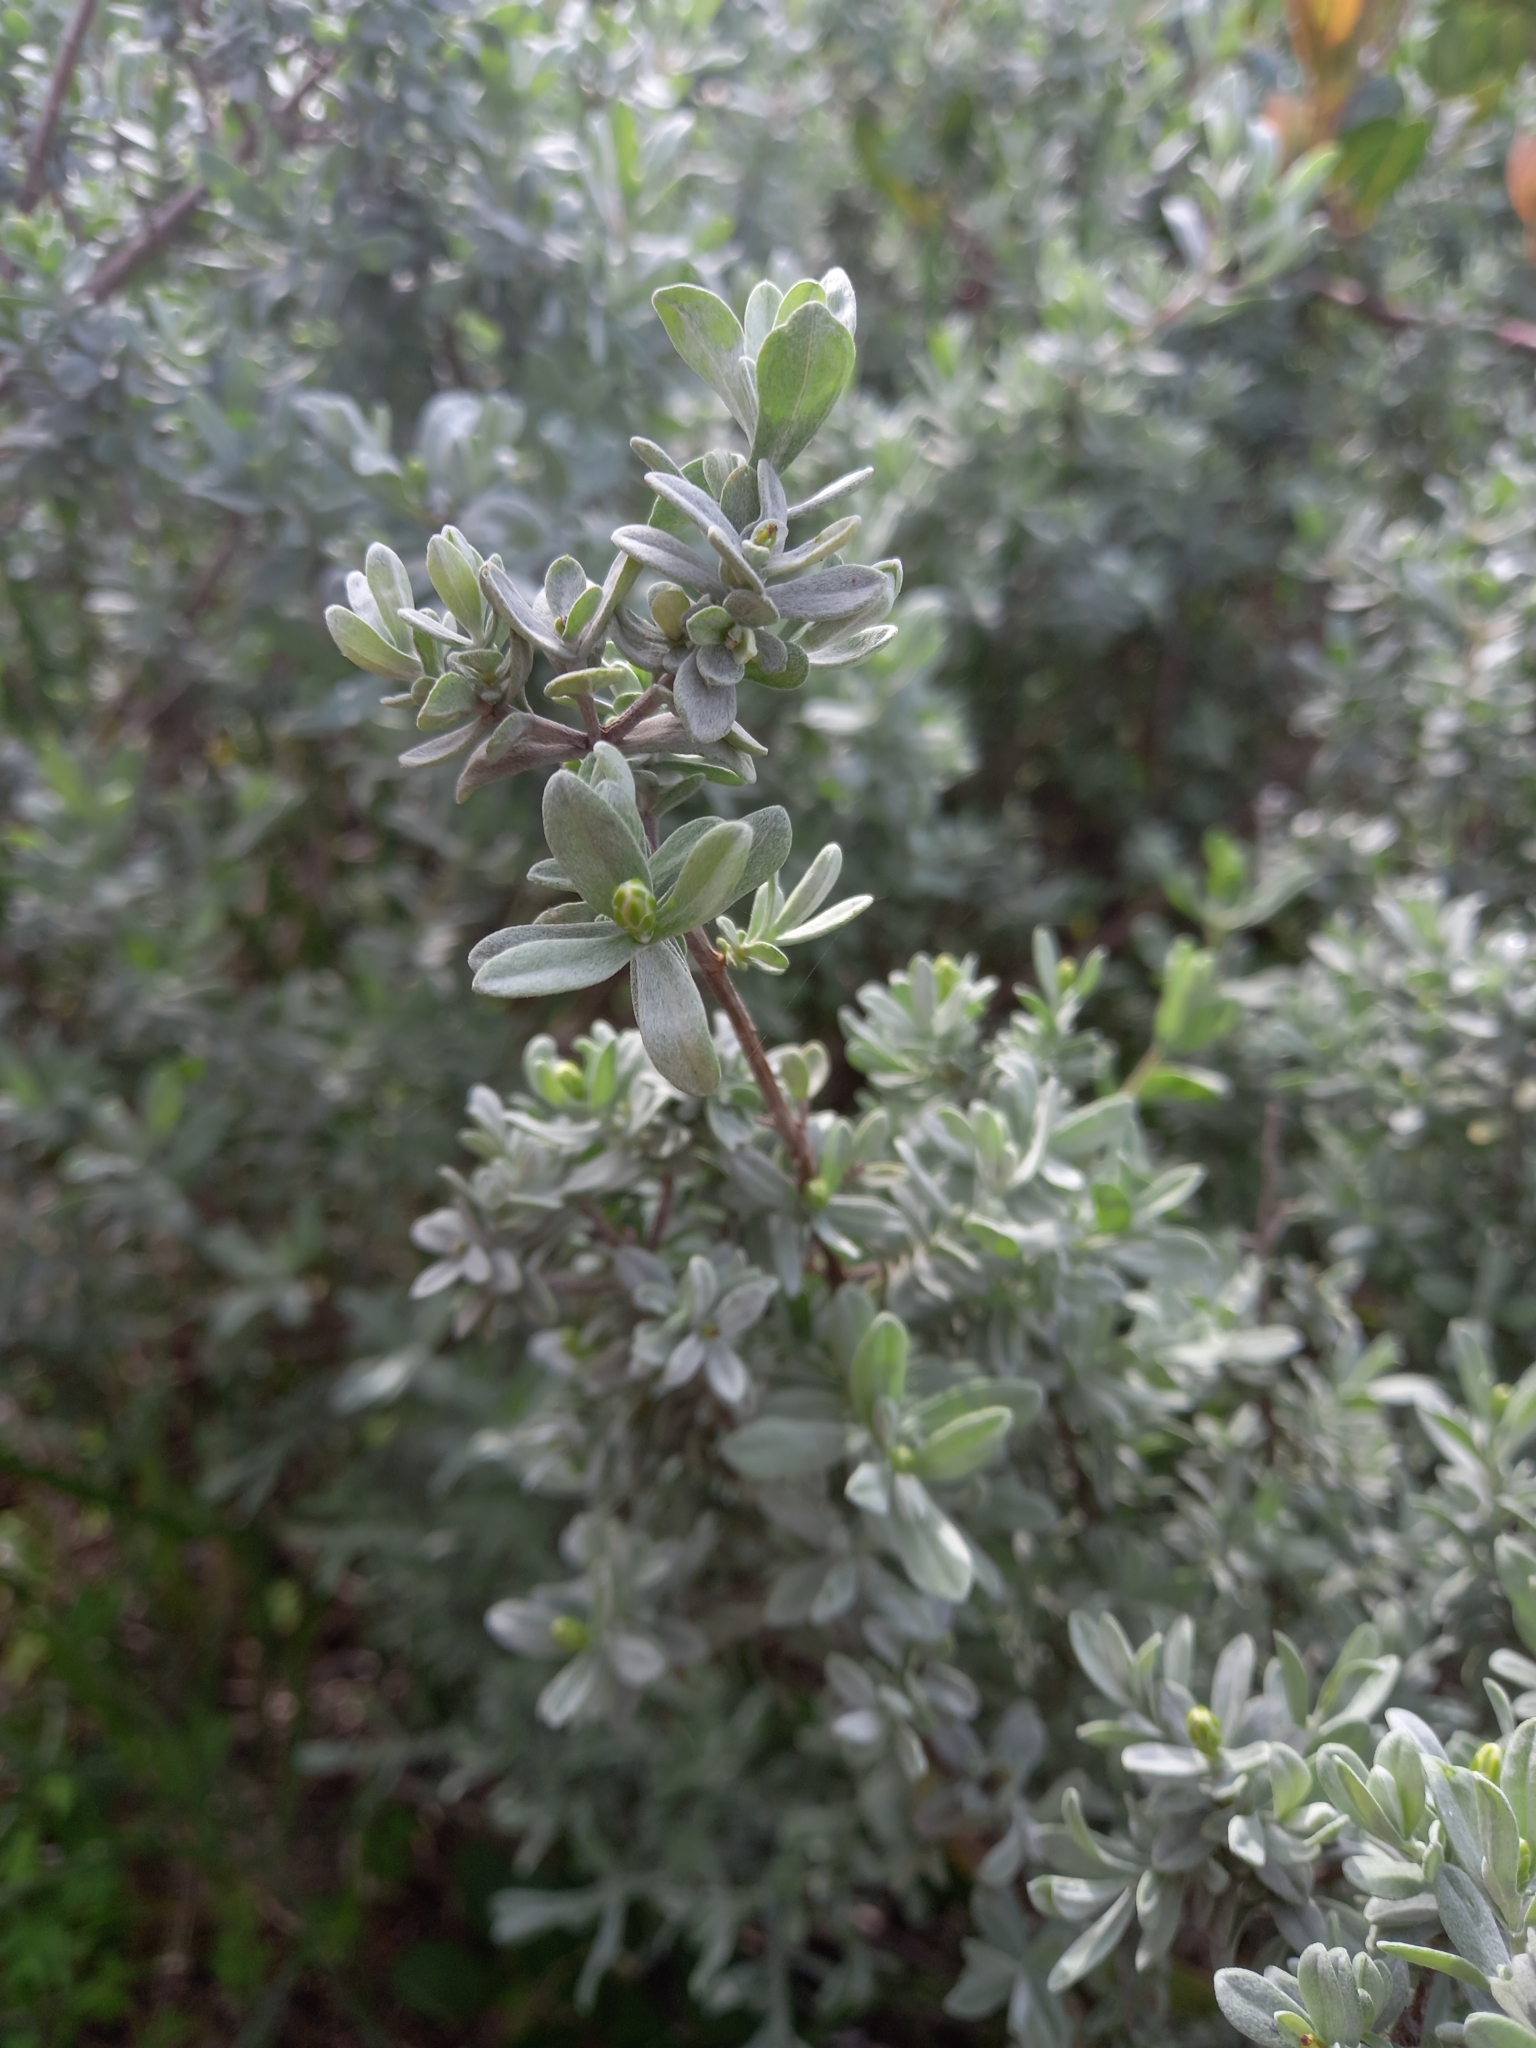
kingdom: Plantae
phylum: Tracheophyta
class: Magnoliopsida
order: Asterales
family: Asteraceae
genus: Pteronia
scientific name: Pteronia incana
